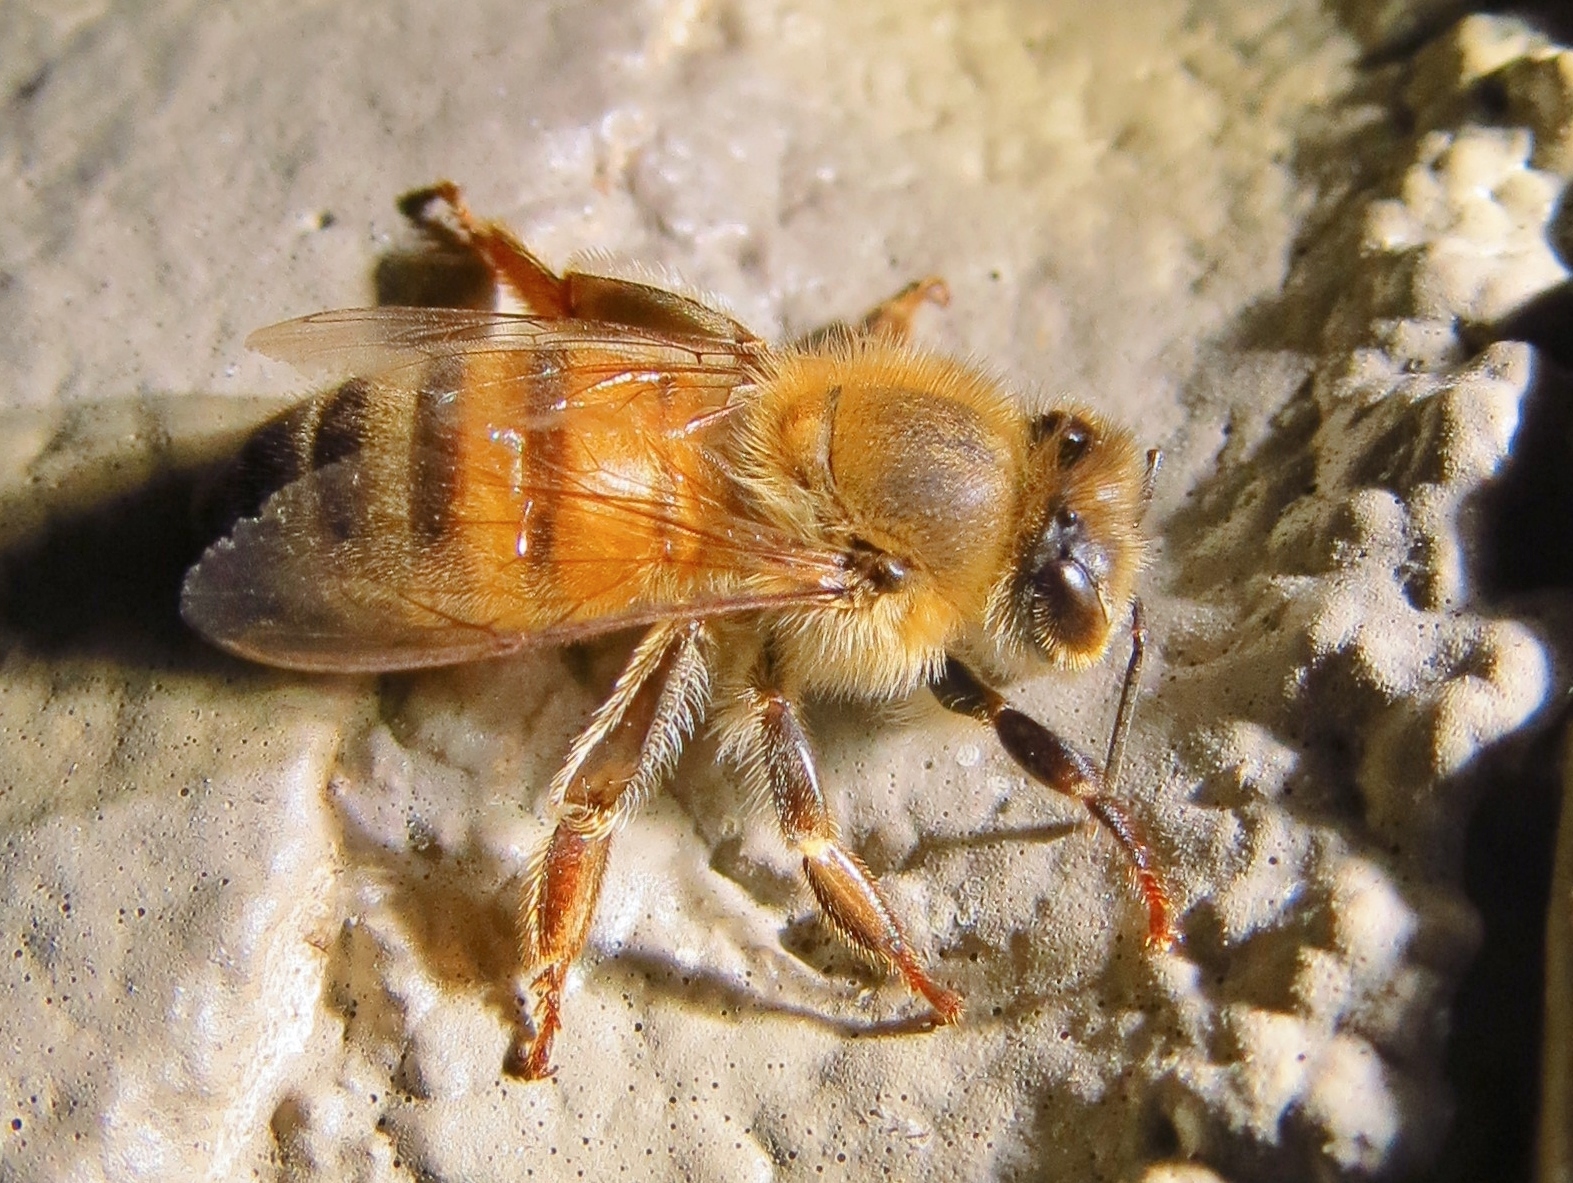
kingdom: Animalia
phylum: Arthropoda
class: Insecta
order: Hymenoptera
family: Apidae
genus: Apis
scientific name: Apis mellifera
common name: Honey bee
